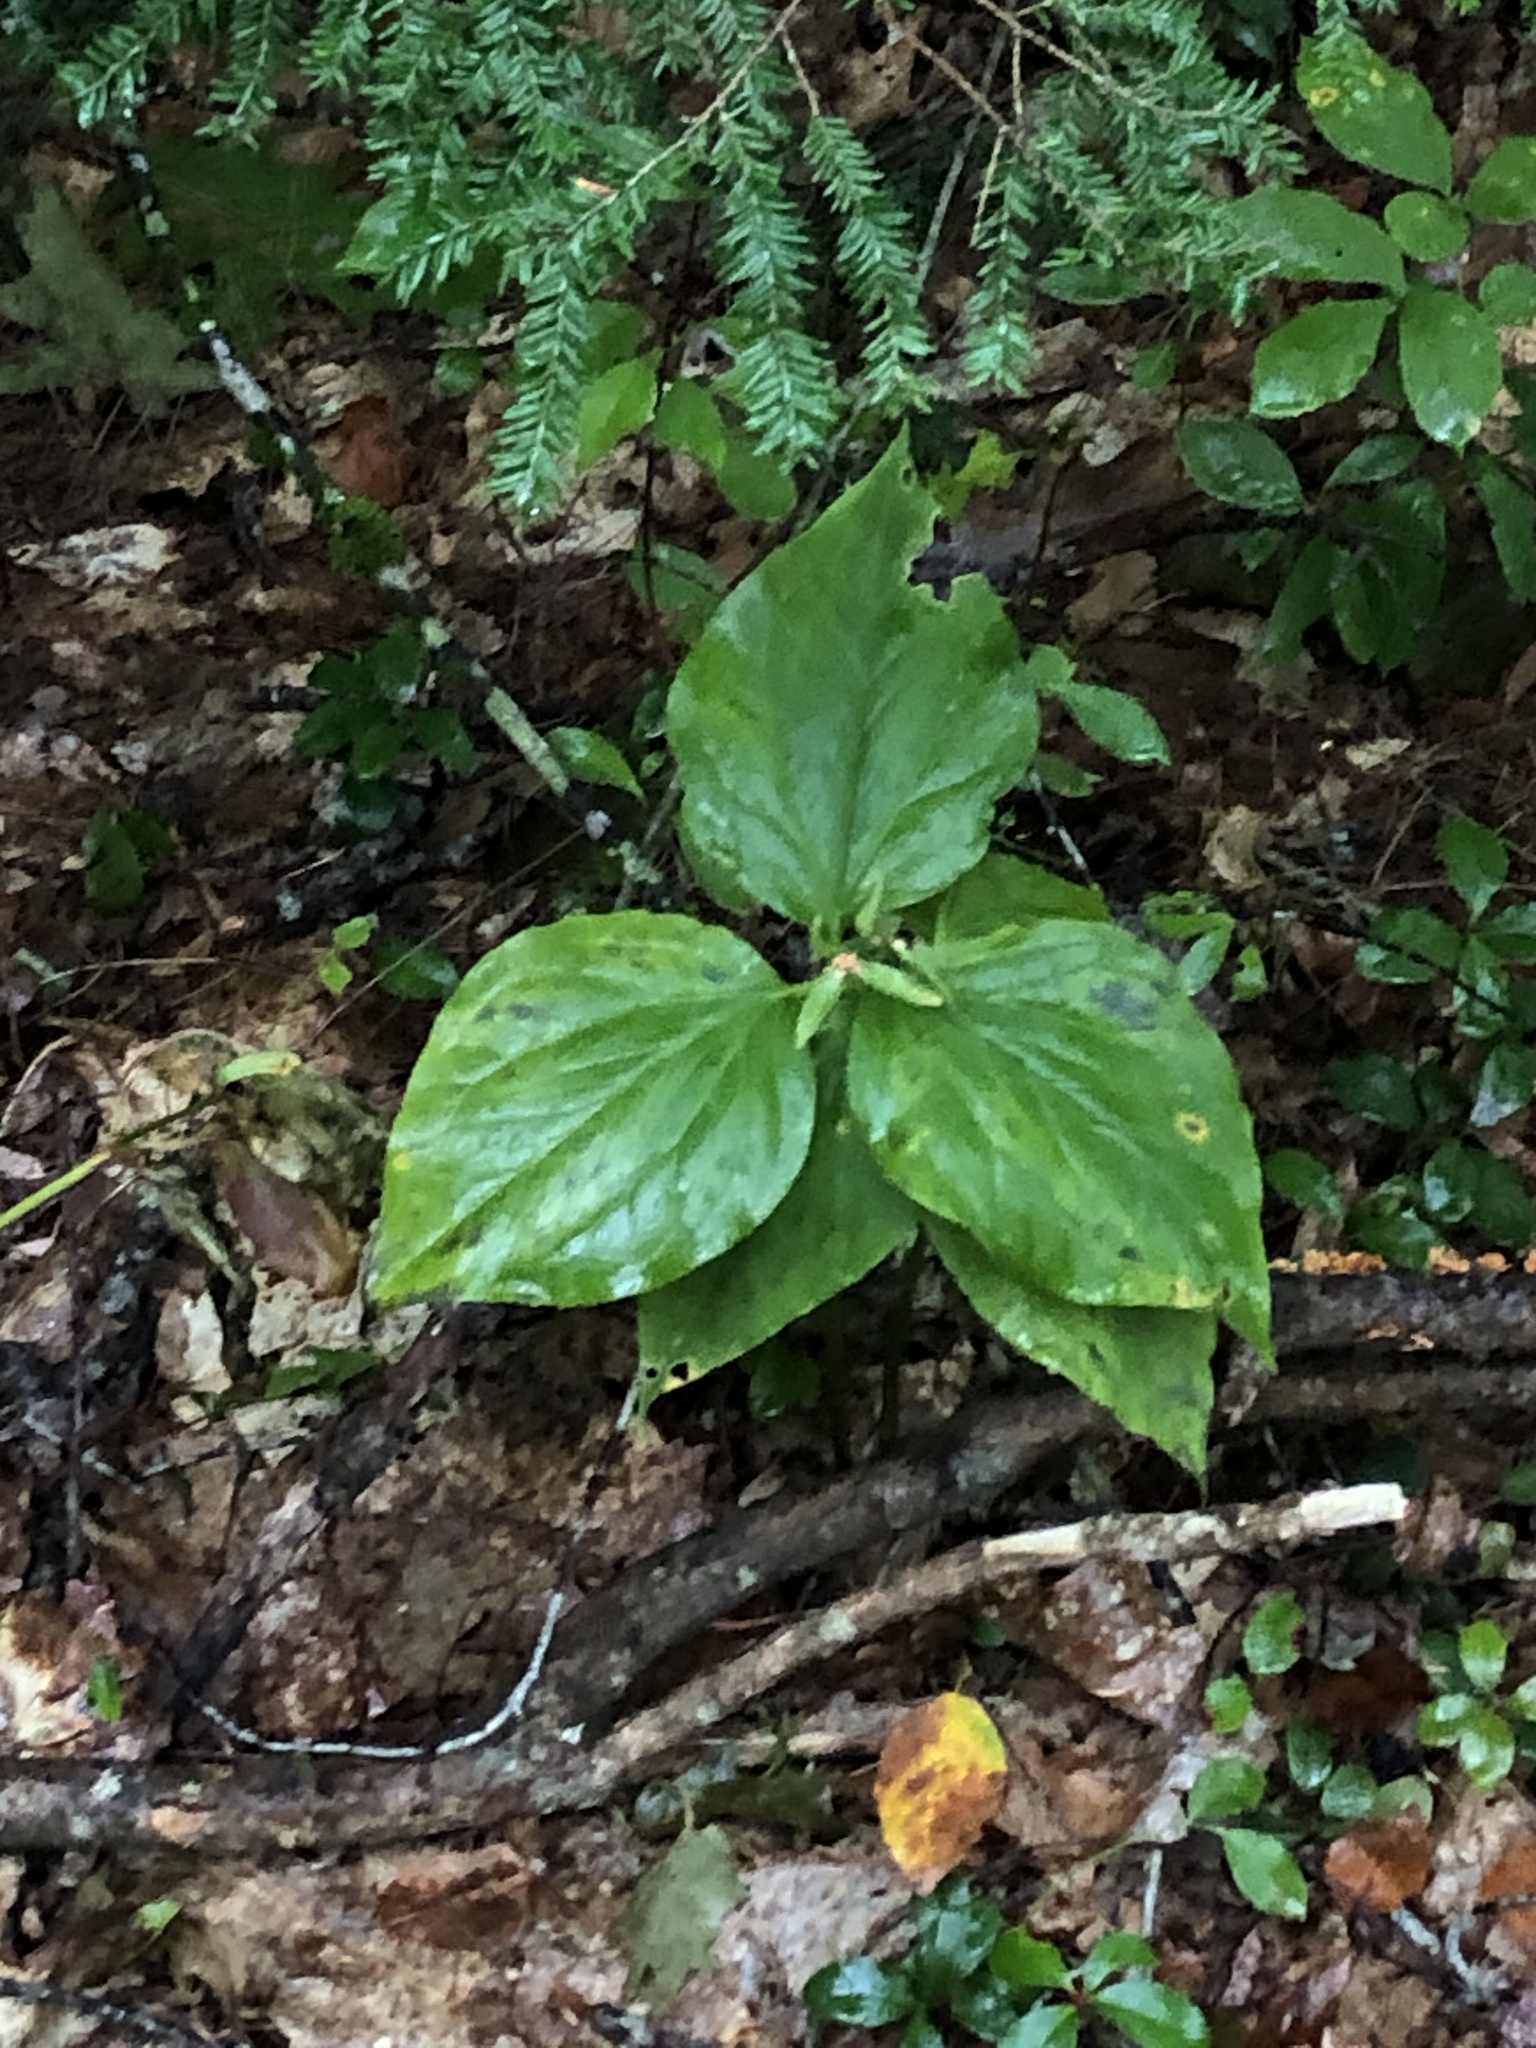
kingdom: Plantae
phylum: Tracheophyta
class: Liliopsida
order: Liliales
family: Melanthiaceae
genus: Trillium
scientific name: Trillium undulatum
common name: Paint trillium
